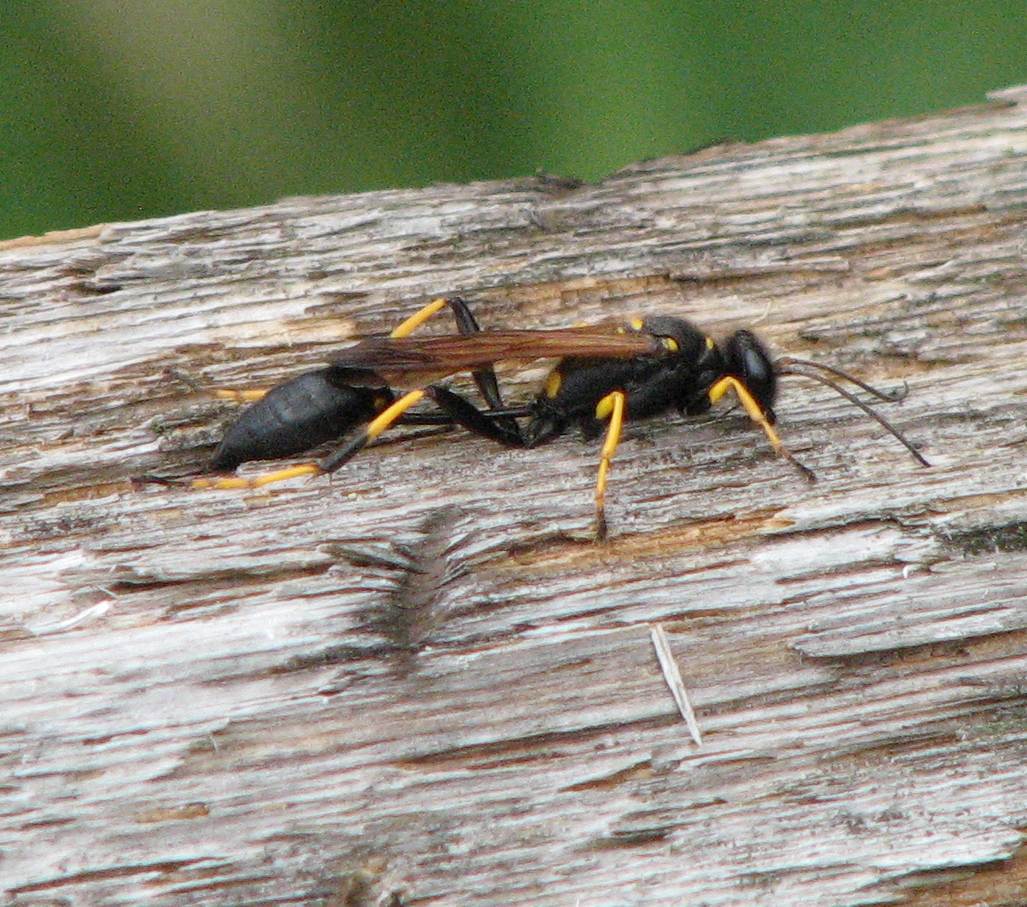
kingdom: Animalia
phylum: Arthropoda
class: Insecta
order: Hymenoptera
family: Sphecidae
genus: Sceliphron
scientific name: Sceliphron caementarium
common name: Mud dauber
